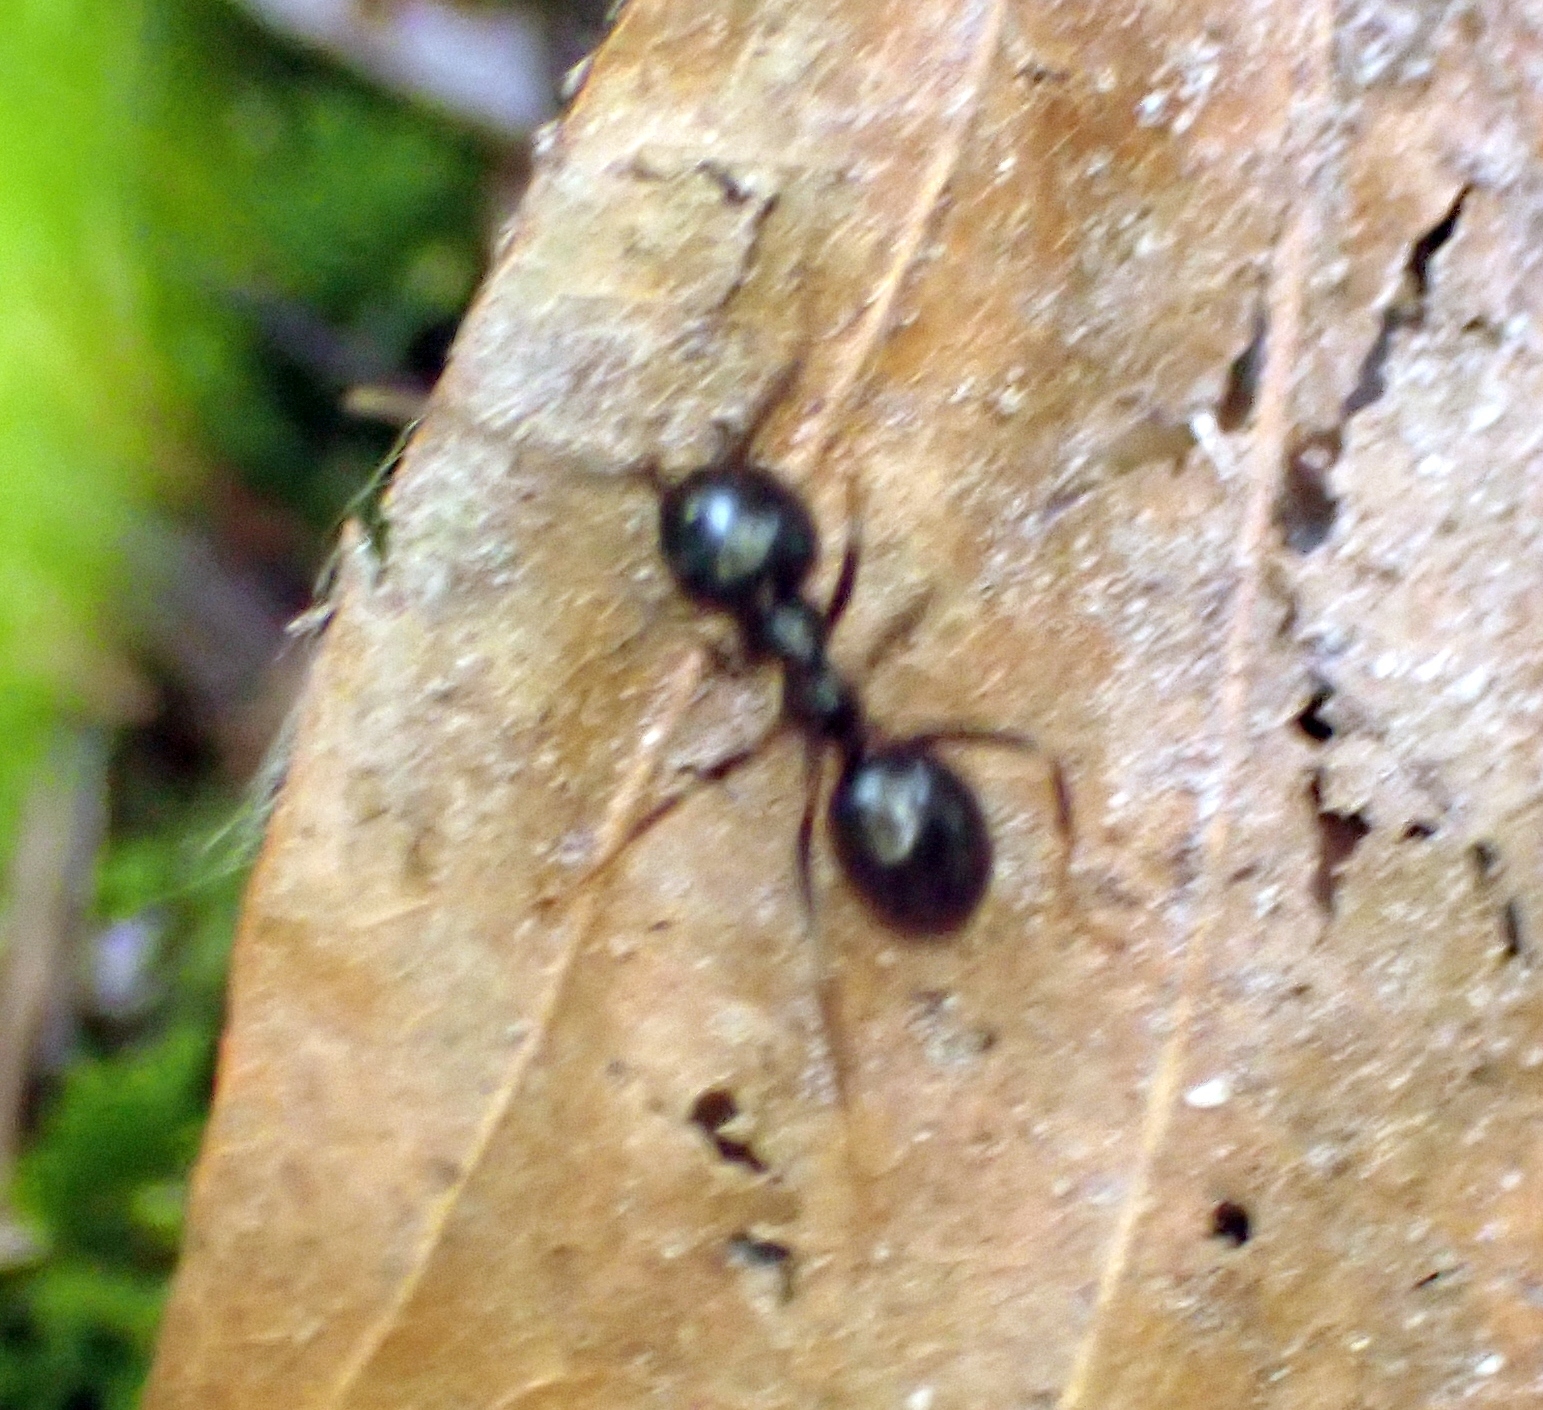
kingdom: Animalia
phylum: Arthropoda
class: Insecta
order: Hymenoptera
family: Formicidae
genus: Lasius
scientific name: Lasius fuliginosus
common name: Jet ant
